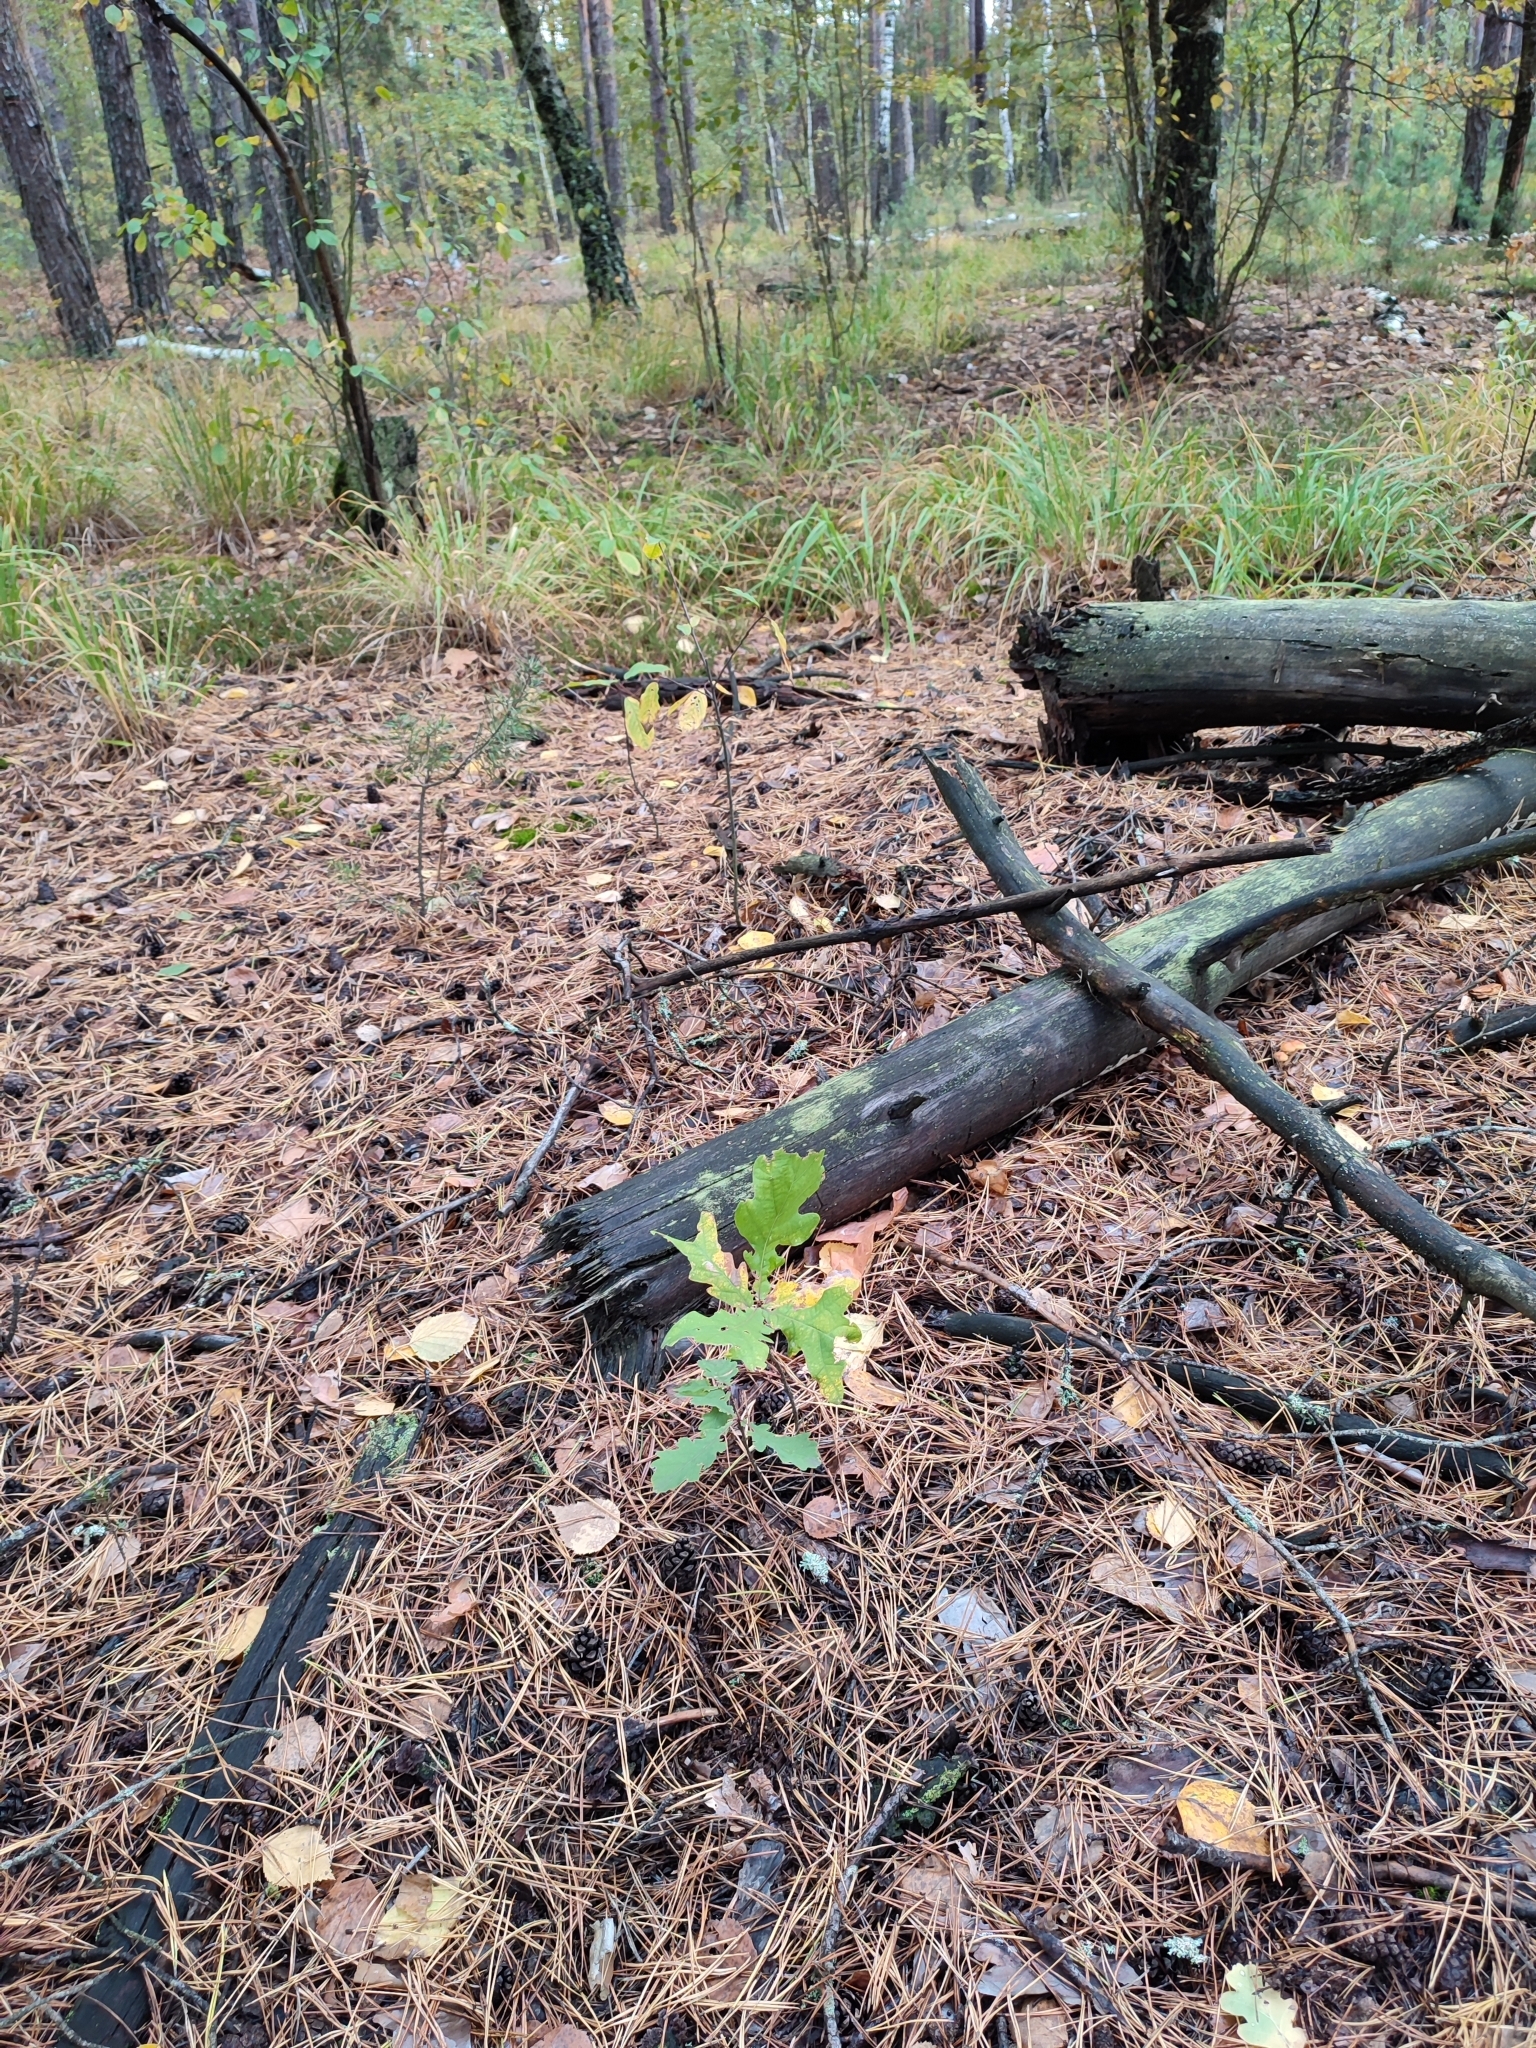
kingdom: Plantae
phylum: Tracheophyta
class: Magnoliopsida
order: Fagales
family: Fagaceae
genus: Quercus
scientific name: Quercus robur
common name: Pedunculate oak
